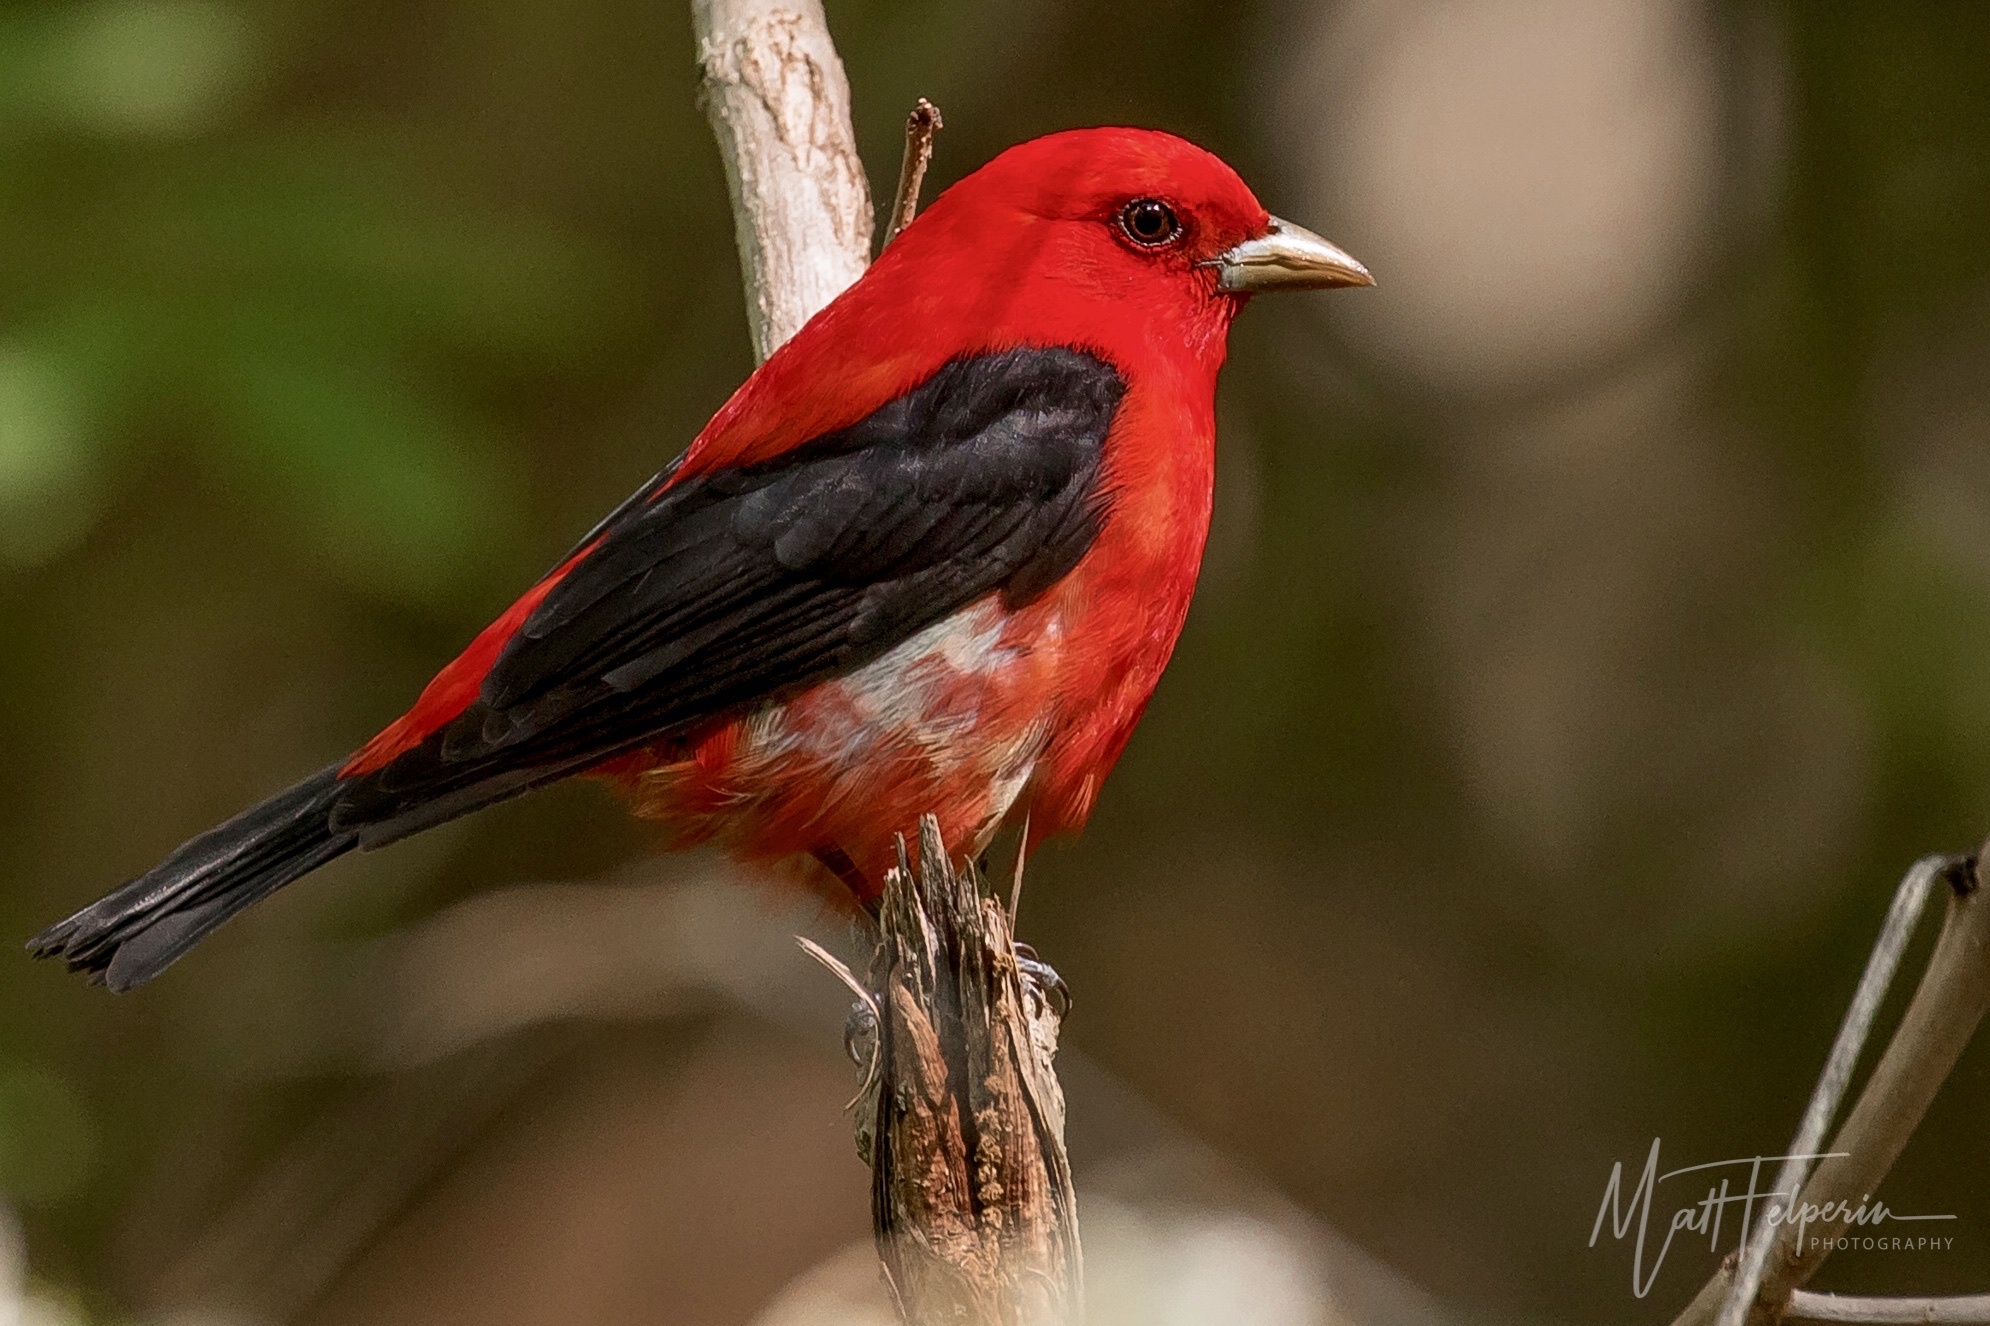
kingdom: Animalia
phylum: Chordata
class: Aves
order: Passeriformes
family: Cardinalidae
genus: Piranga
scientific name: Piranga olivacea
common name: Scarlet tanager
